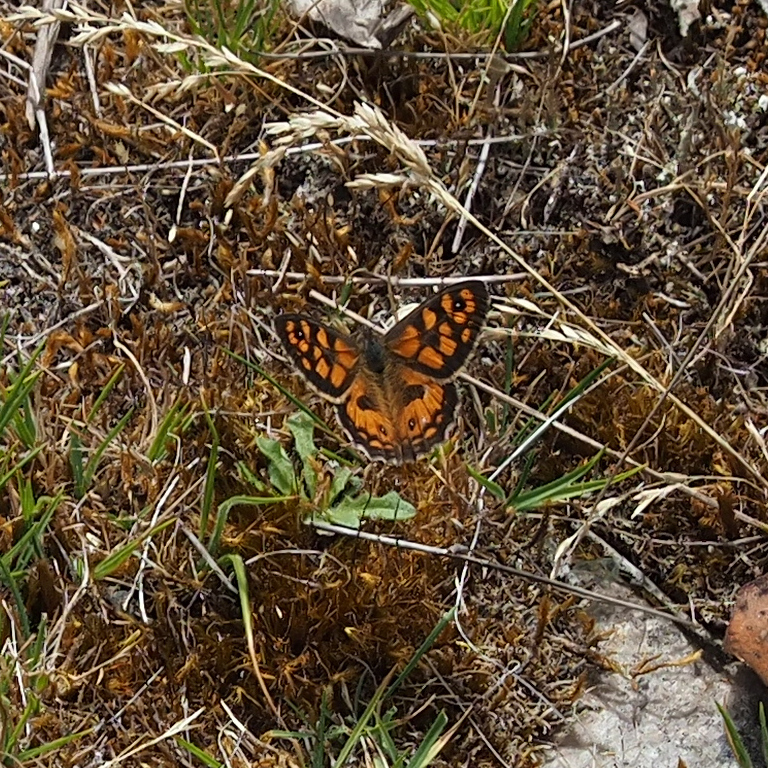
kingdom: Animalia
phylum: Arthropoda
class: Insecta
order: Lepidoptera
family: Nymphalidae
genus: Geitoneura
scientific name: Geitoneura klugii
